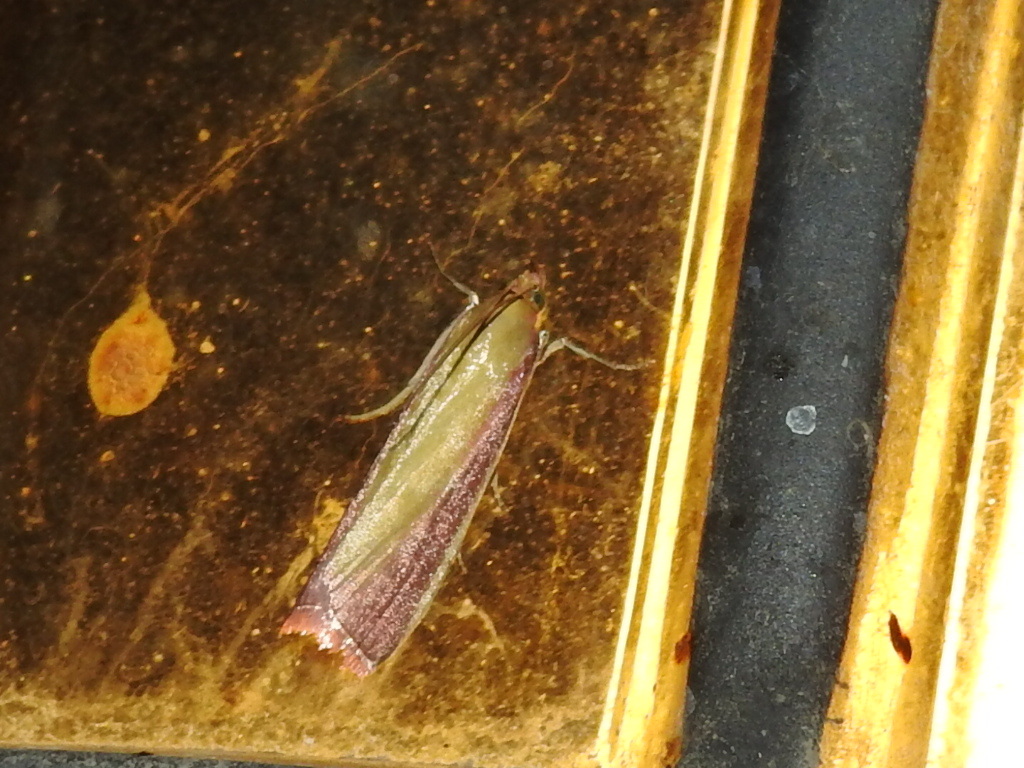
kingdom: Animalia
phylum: Arthropoda
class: Insecta
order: Lepidoptera
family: Pyralidae
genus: Oncocera
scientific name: Oncocera semirubella
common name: Rosy-striped knot-horn
